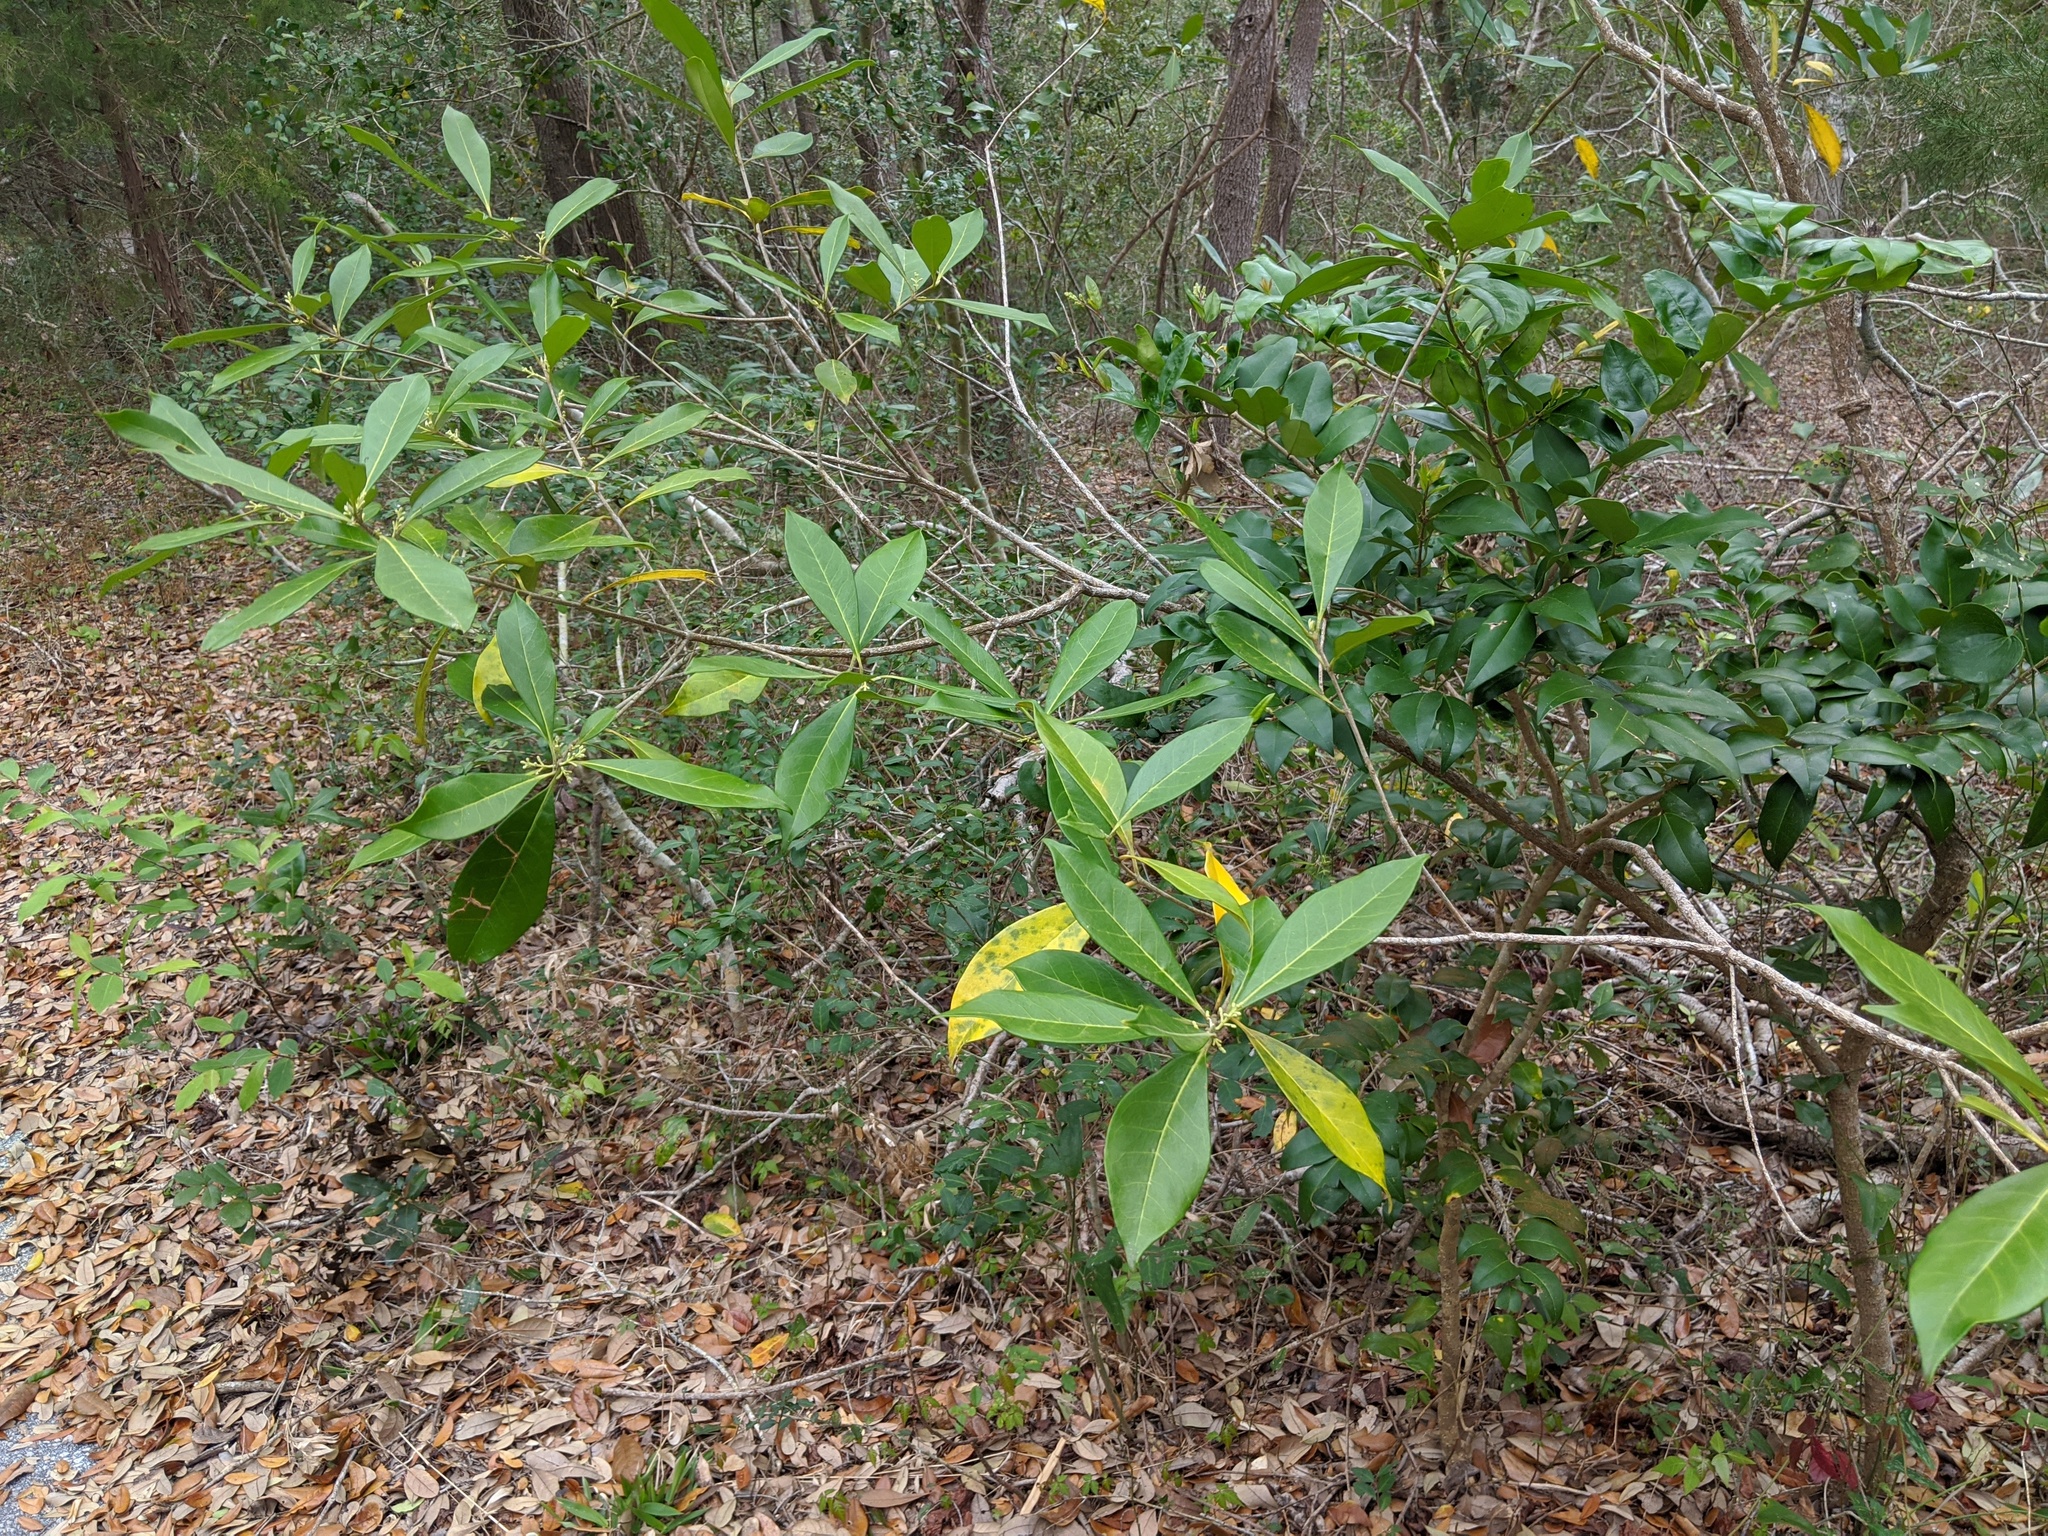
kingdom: Plantae
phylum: Tracheophyta
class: Magnoliopsida
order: Lamiales
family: Oleaceae
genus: Cartrema
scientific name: Cartrema americana
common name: Devilwood
